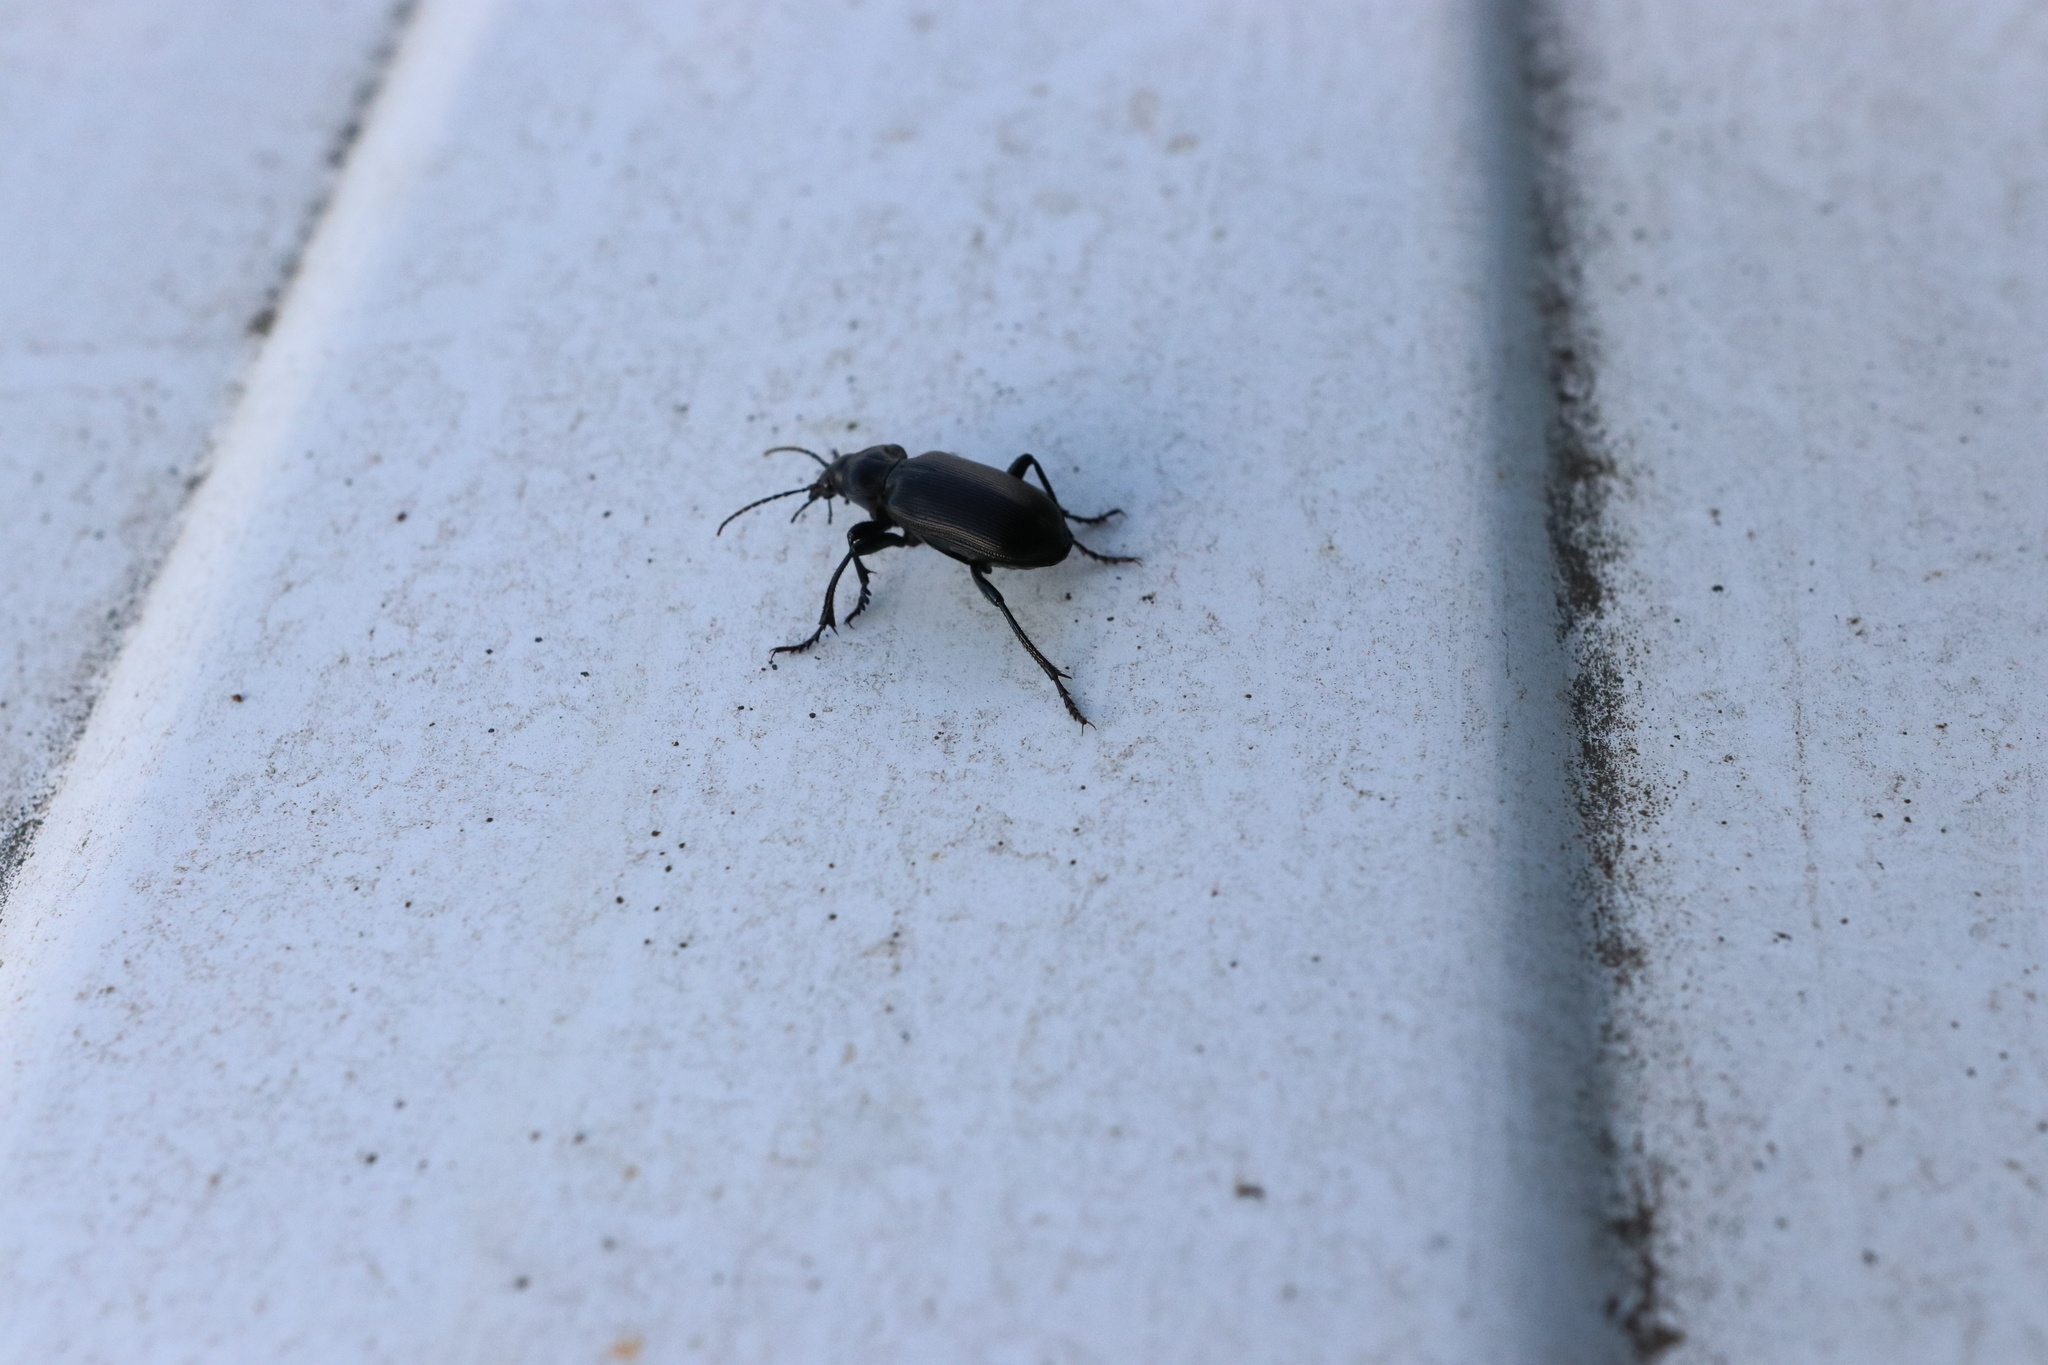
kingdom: Animalia
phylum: Arthropoda
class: Insecta
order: Coleoptera
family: Carabidae
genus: Calosoma
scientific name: Calosoma vagans
